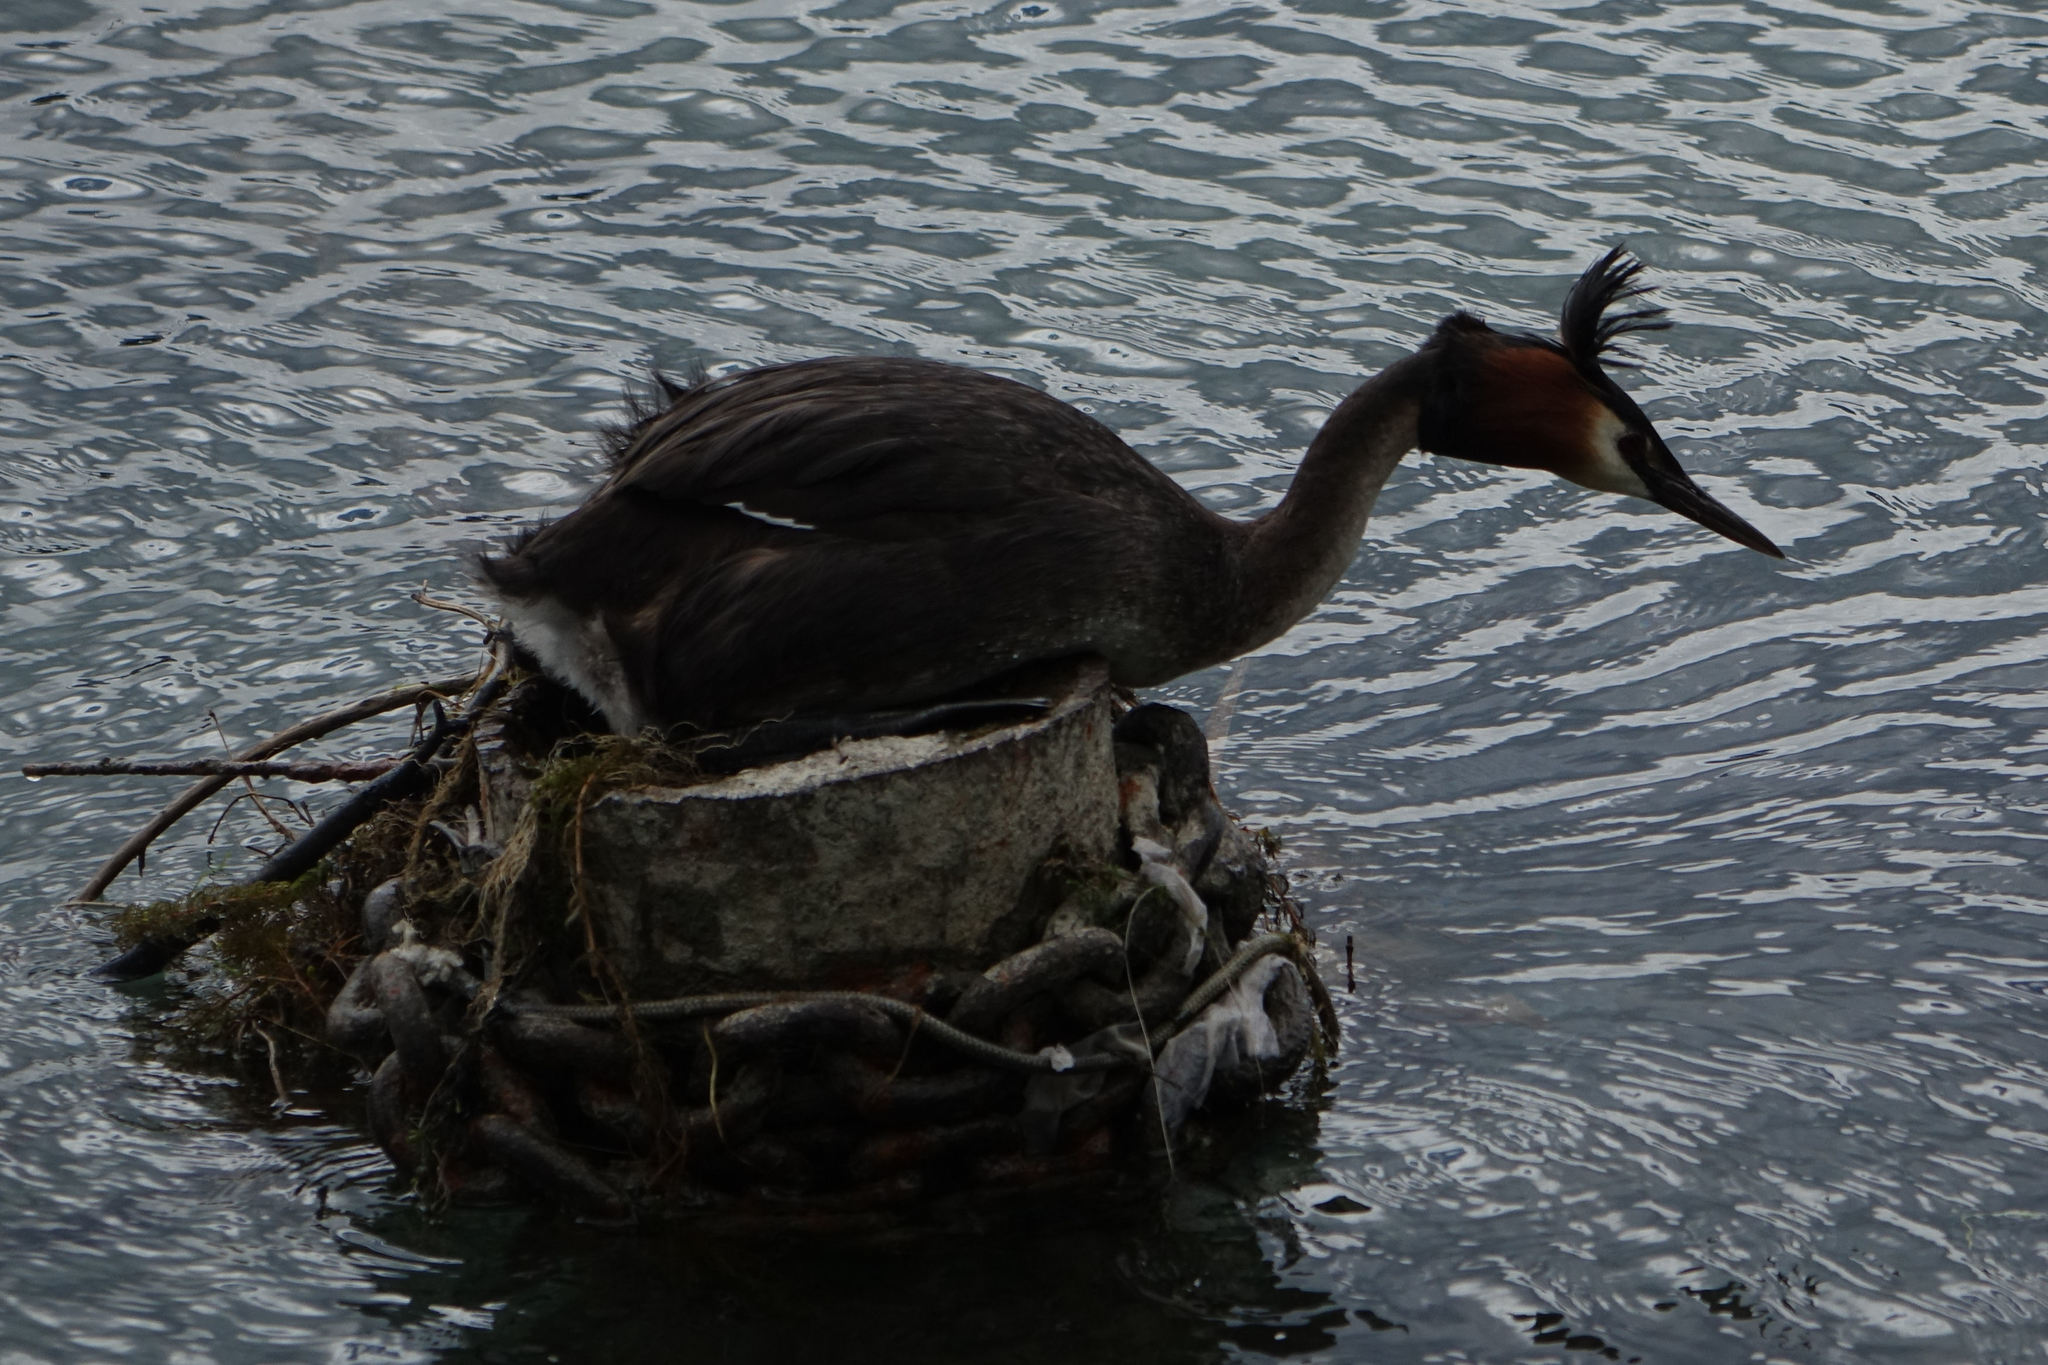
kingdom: Animalia
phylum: Chordata
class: Aves
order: Podicipediformes
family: Podicipedidae
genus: Podiceps
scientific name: Podiceps cristatus
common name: Great crested grebe
